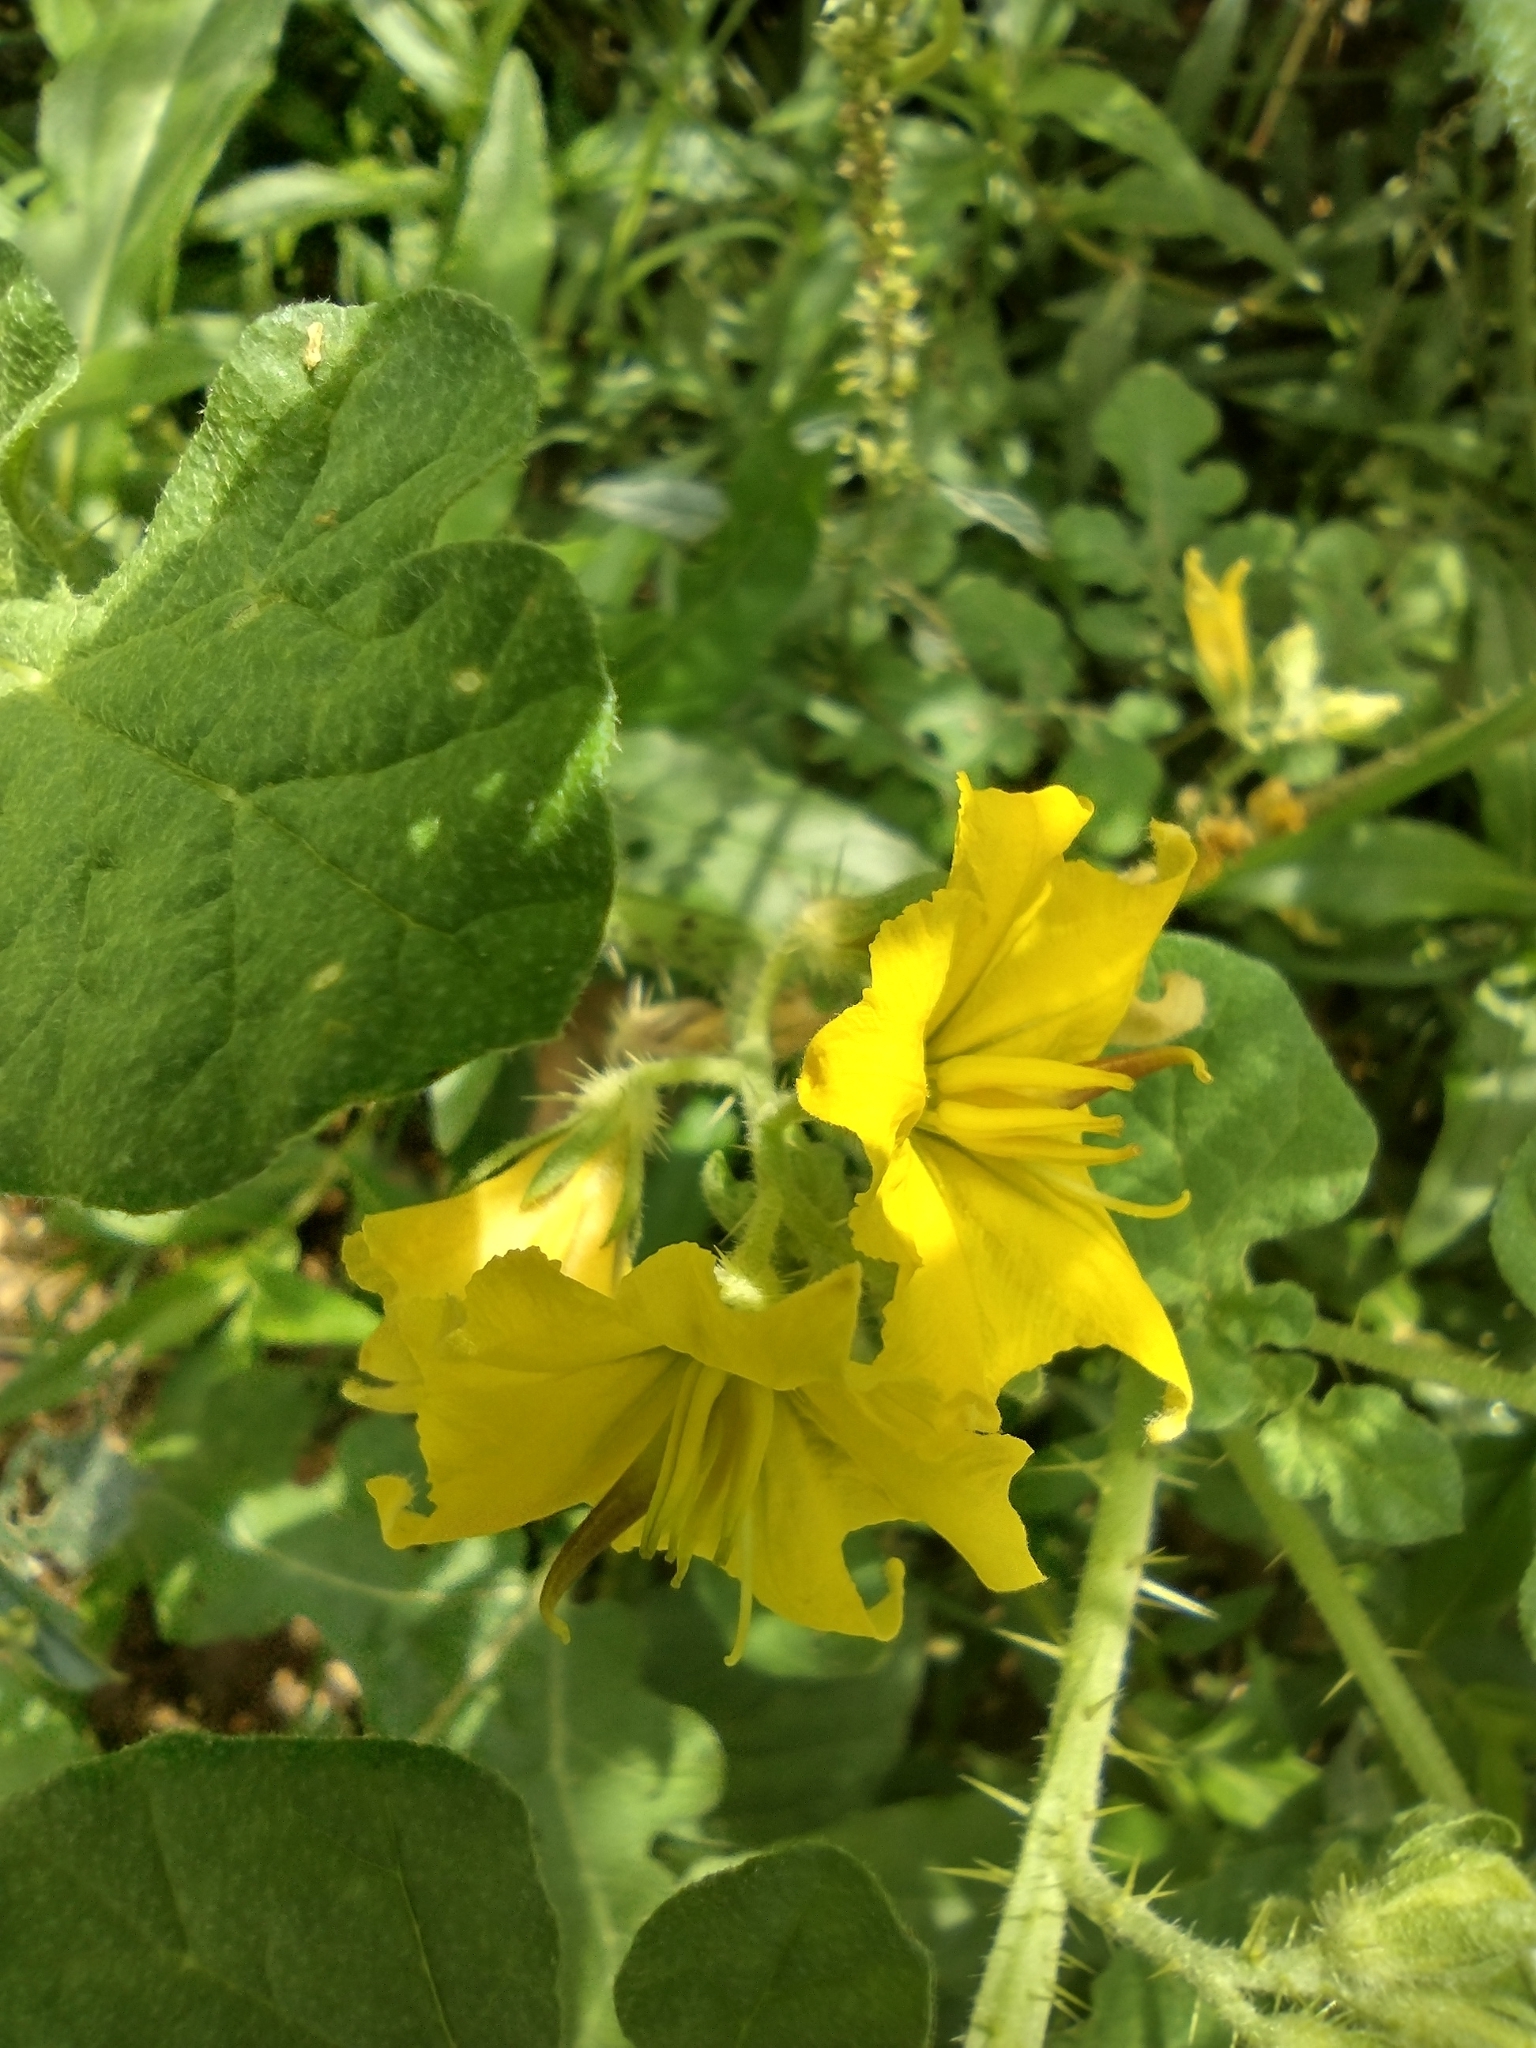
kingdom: Plantae
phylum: Tracheophyta
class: Magnoliopsida
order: Solanales
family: Solanaceae
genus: Solanum
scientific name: Solanum angustifolium
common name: Buffalobur nightshade
